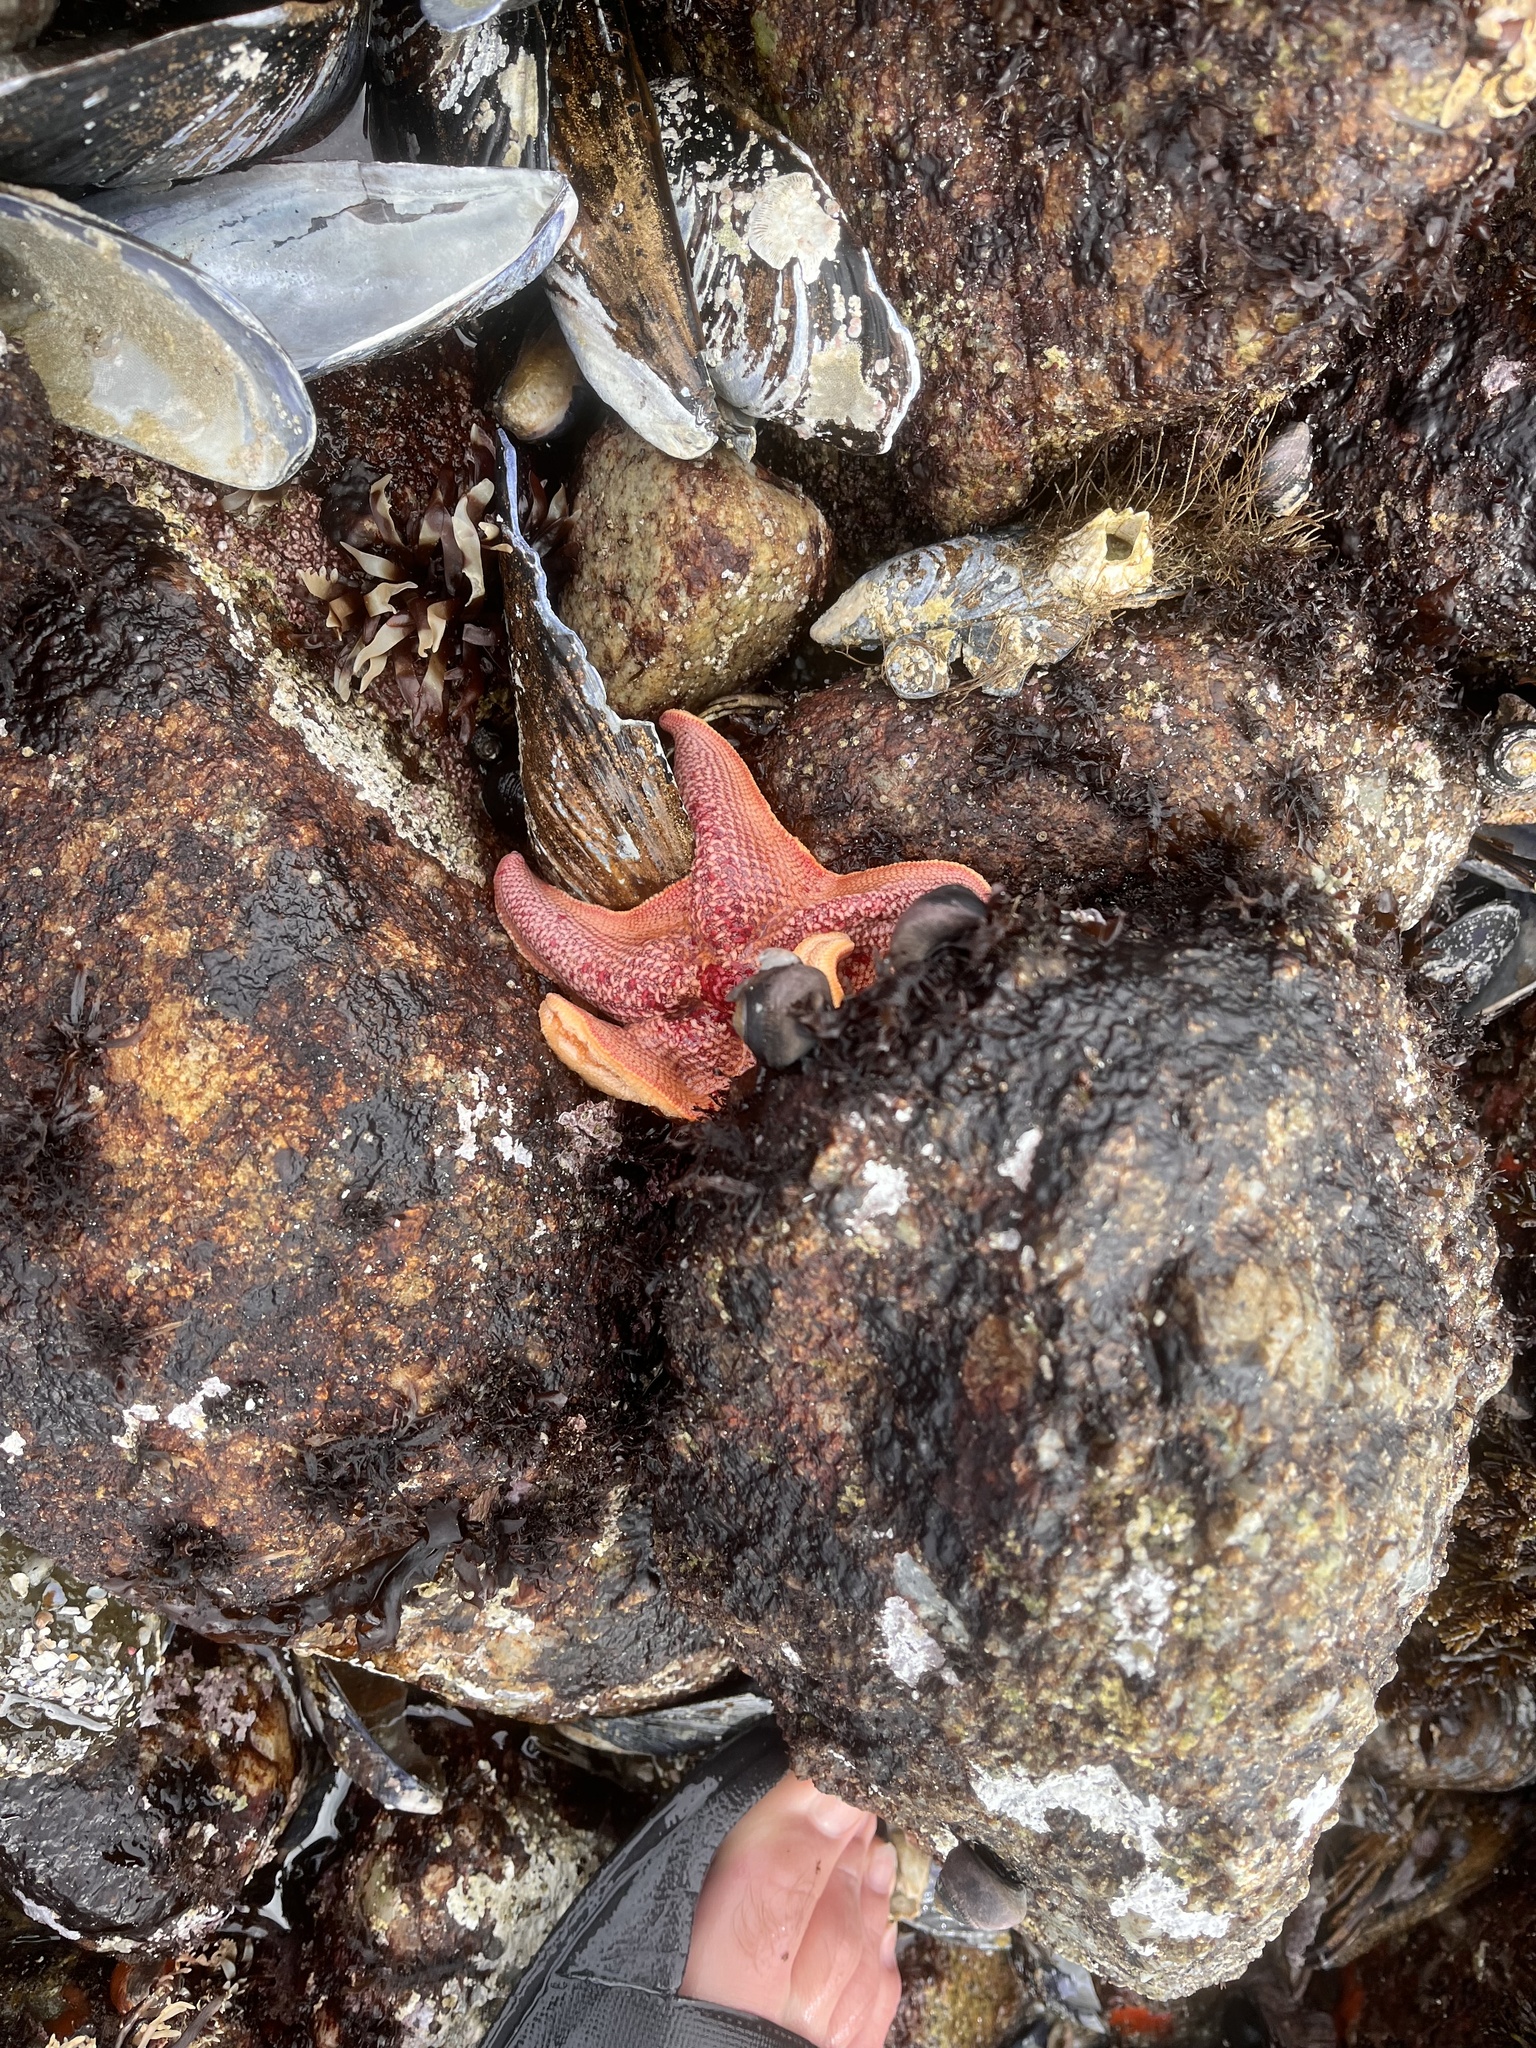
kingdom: Animalia
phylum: Echinodermata
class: Asteroidea
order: Valvatida
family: Asterinidae
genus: Patiria
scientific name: Patiria miniata
